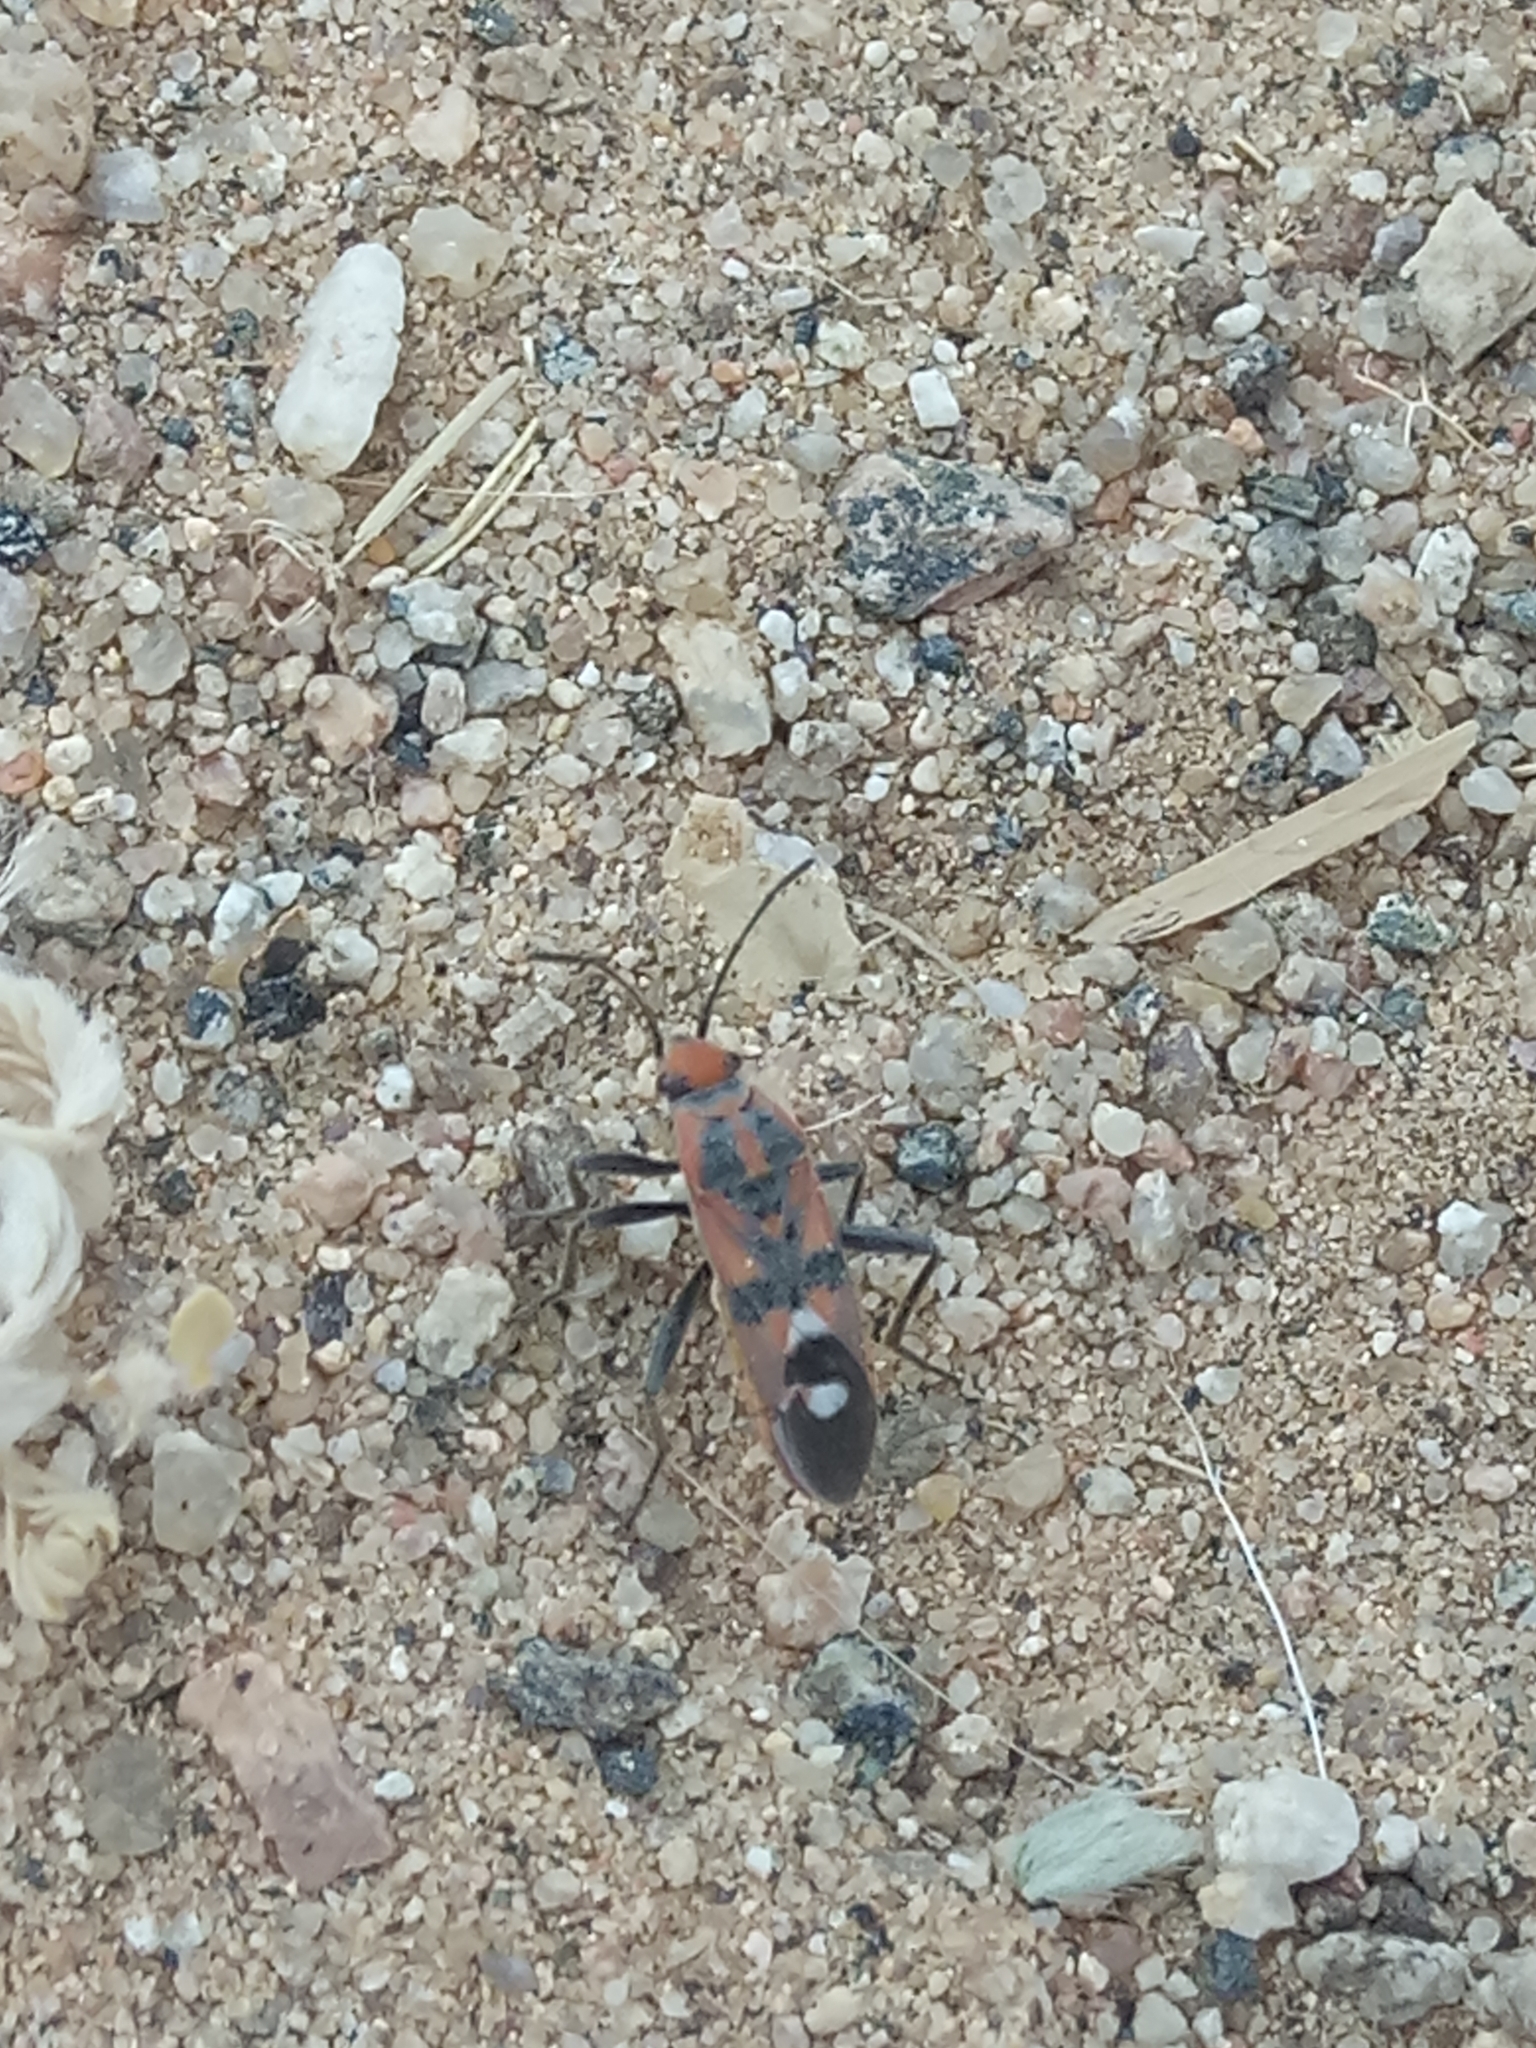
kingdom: Animalia
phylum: Arthropoda
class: Insecta
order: Hemiptera
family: Lygaeidae
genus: Spilostethus
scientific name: Spilostethus longulus
